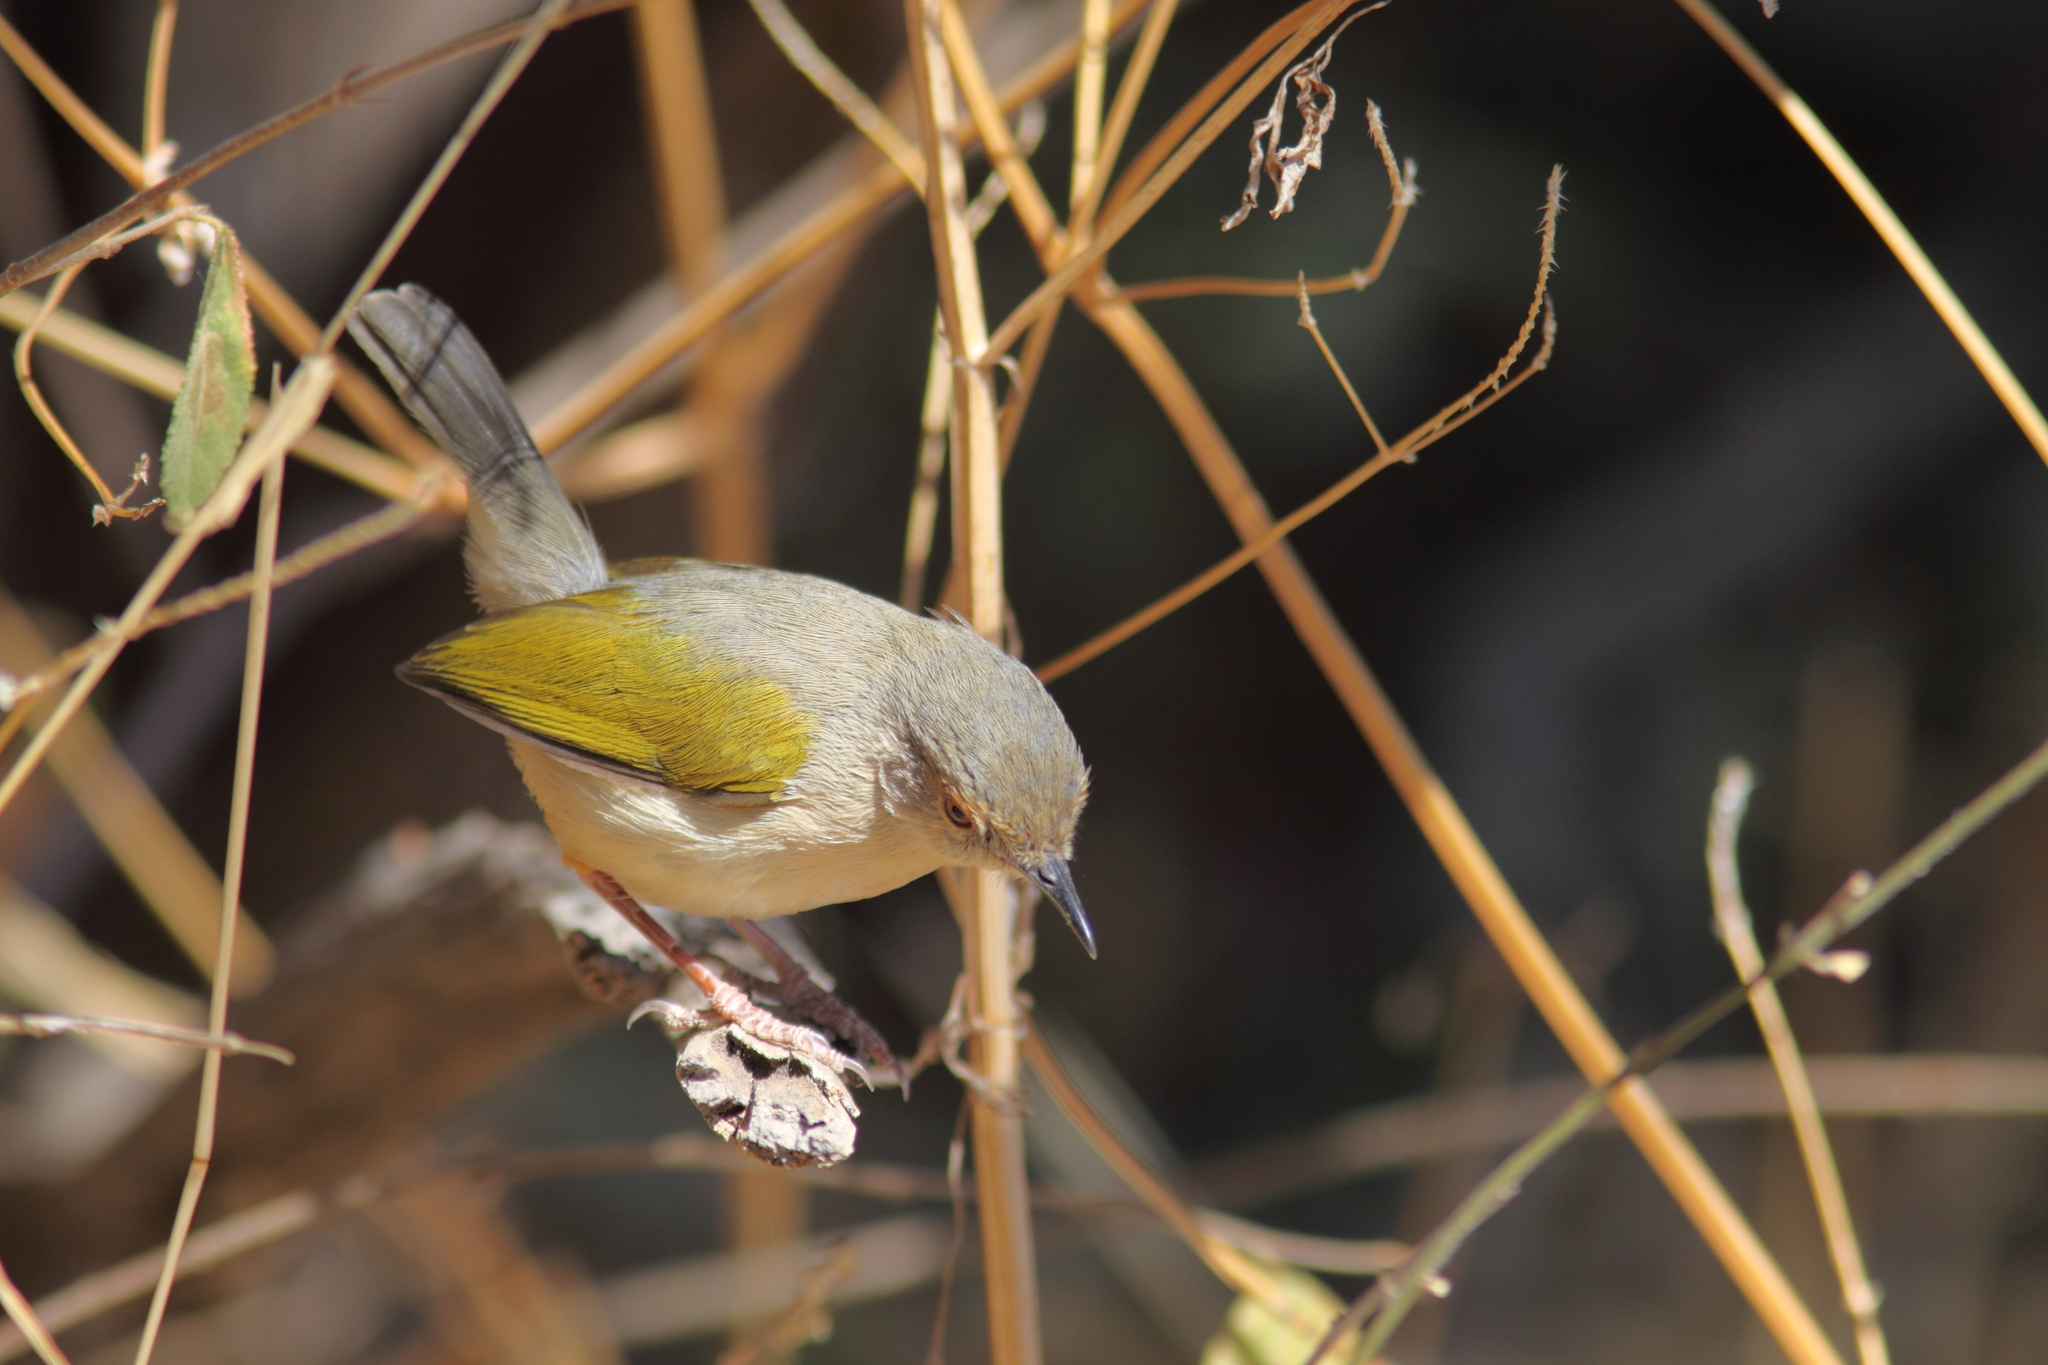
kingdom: Animalia
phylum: Chordata
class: Aves
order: Passeriformes
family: Cisticolidae
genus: Camaroptera
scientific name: Camaroptera brachyura
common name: Green-backed camaroptera
